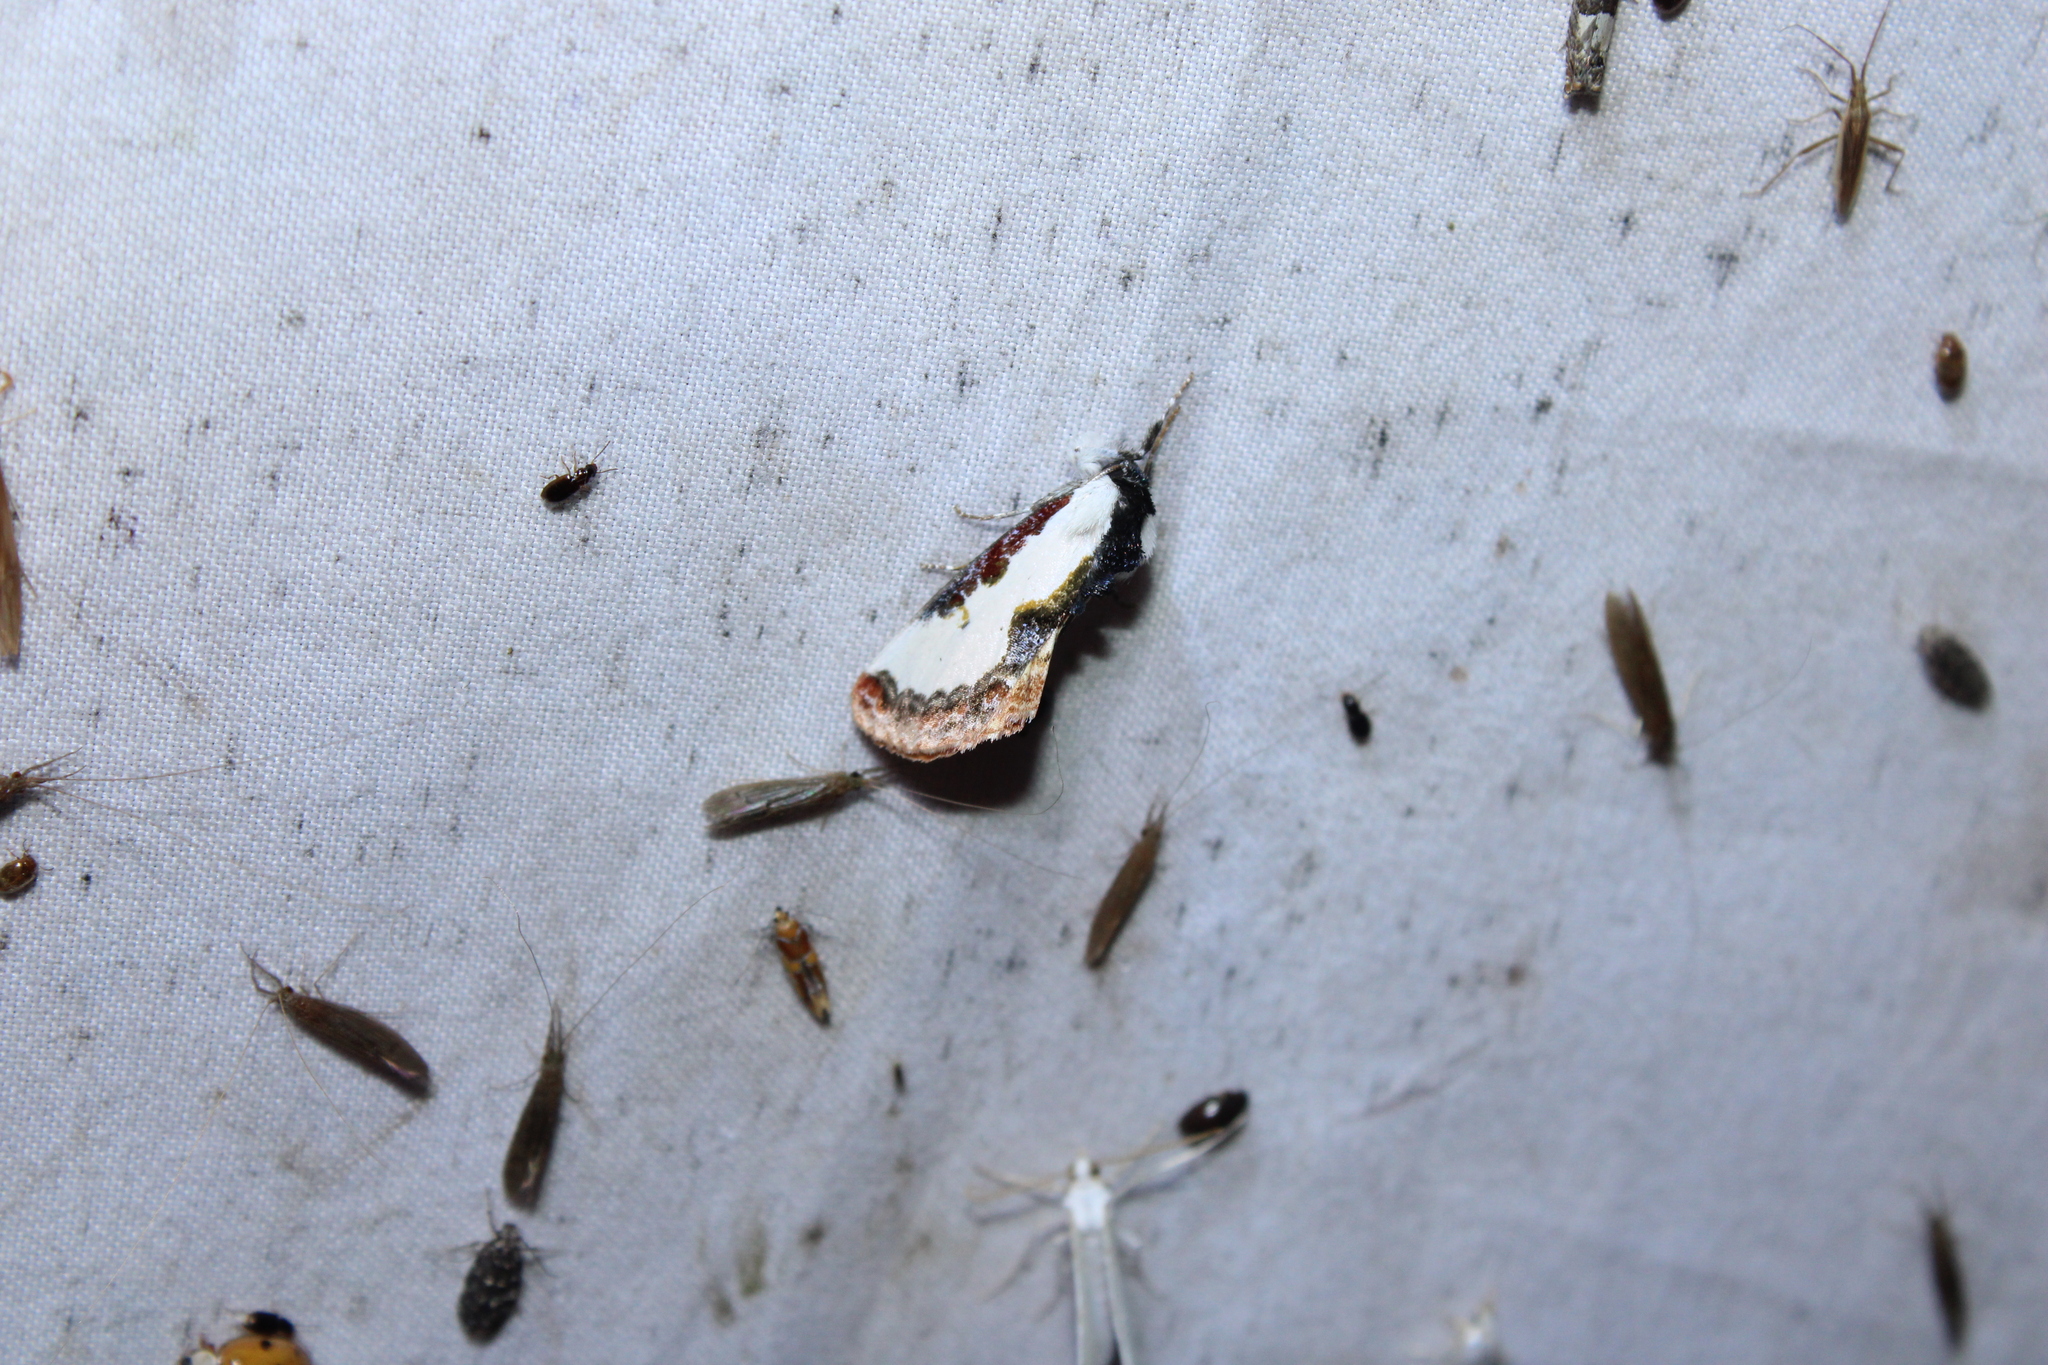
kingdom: Animalia
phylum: Arthropoda
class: Insecta
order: Lepidoptera
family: Noctuidae
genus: Eudryas
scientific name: Eudryas unio
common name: Pearly wood-nymph
